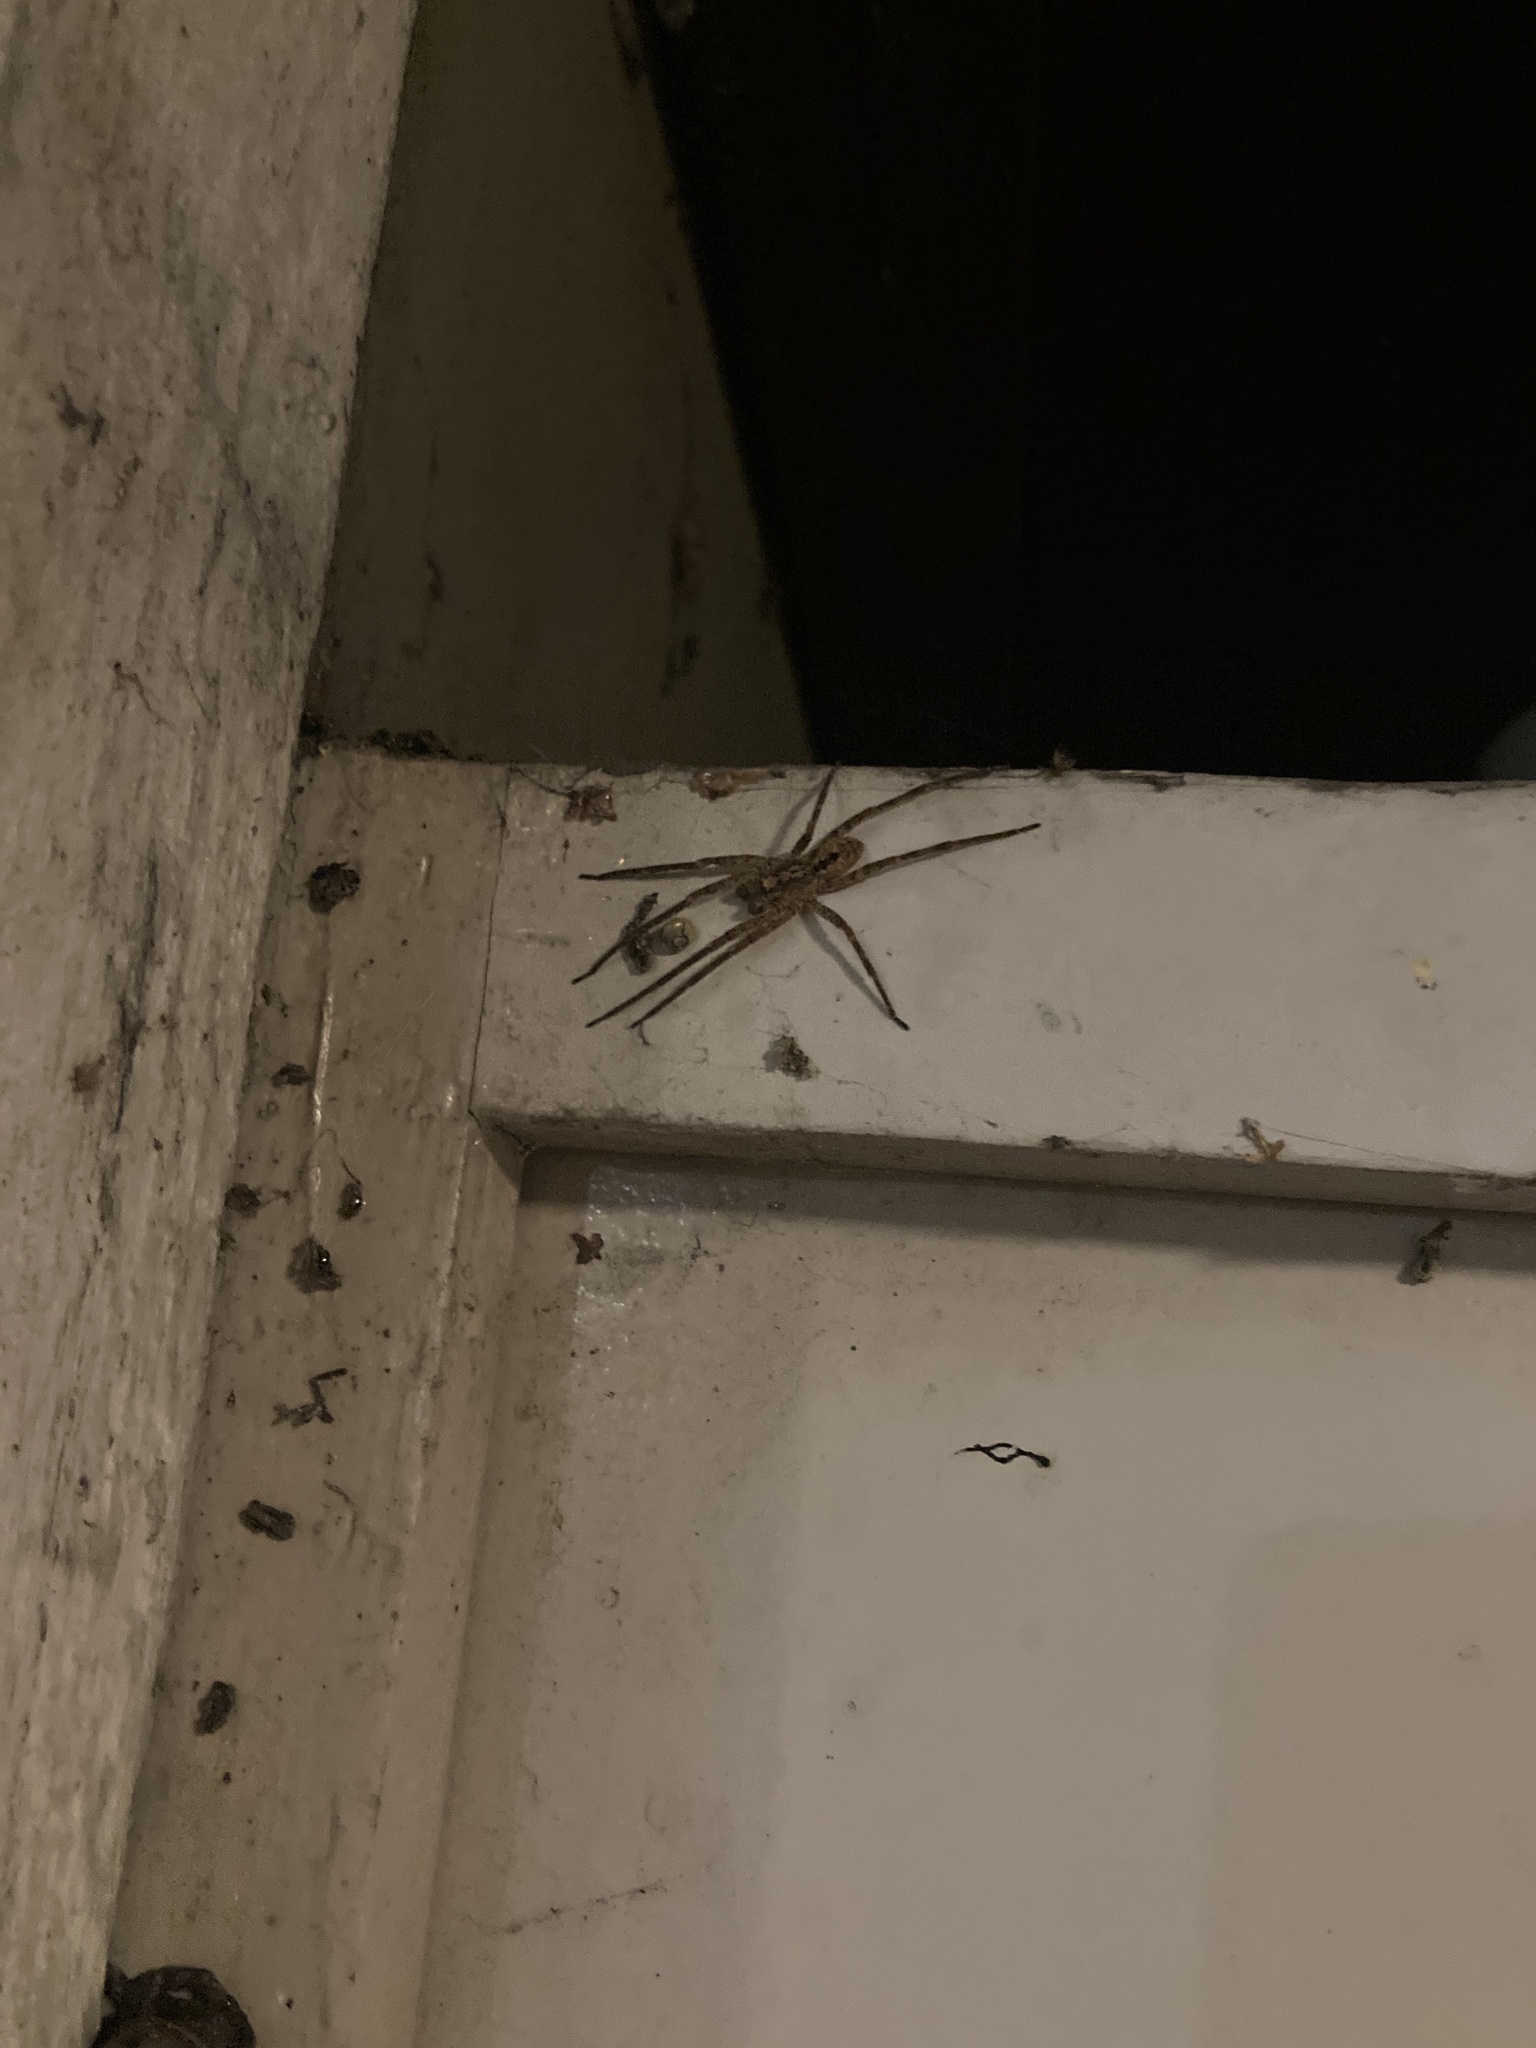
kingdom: Animalia
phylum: Arthropoda
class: Arachnida
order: Araneae
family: Zoropsidae
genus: Zoropsis
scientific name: Zoropsis spinimana
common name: Zoropsid spider
